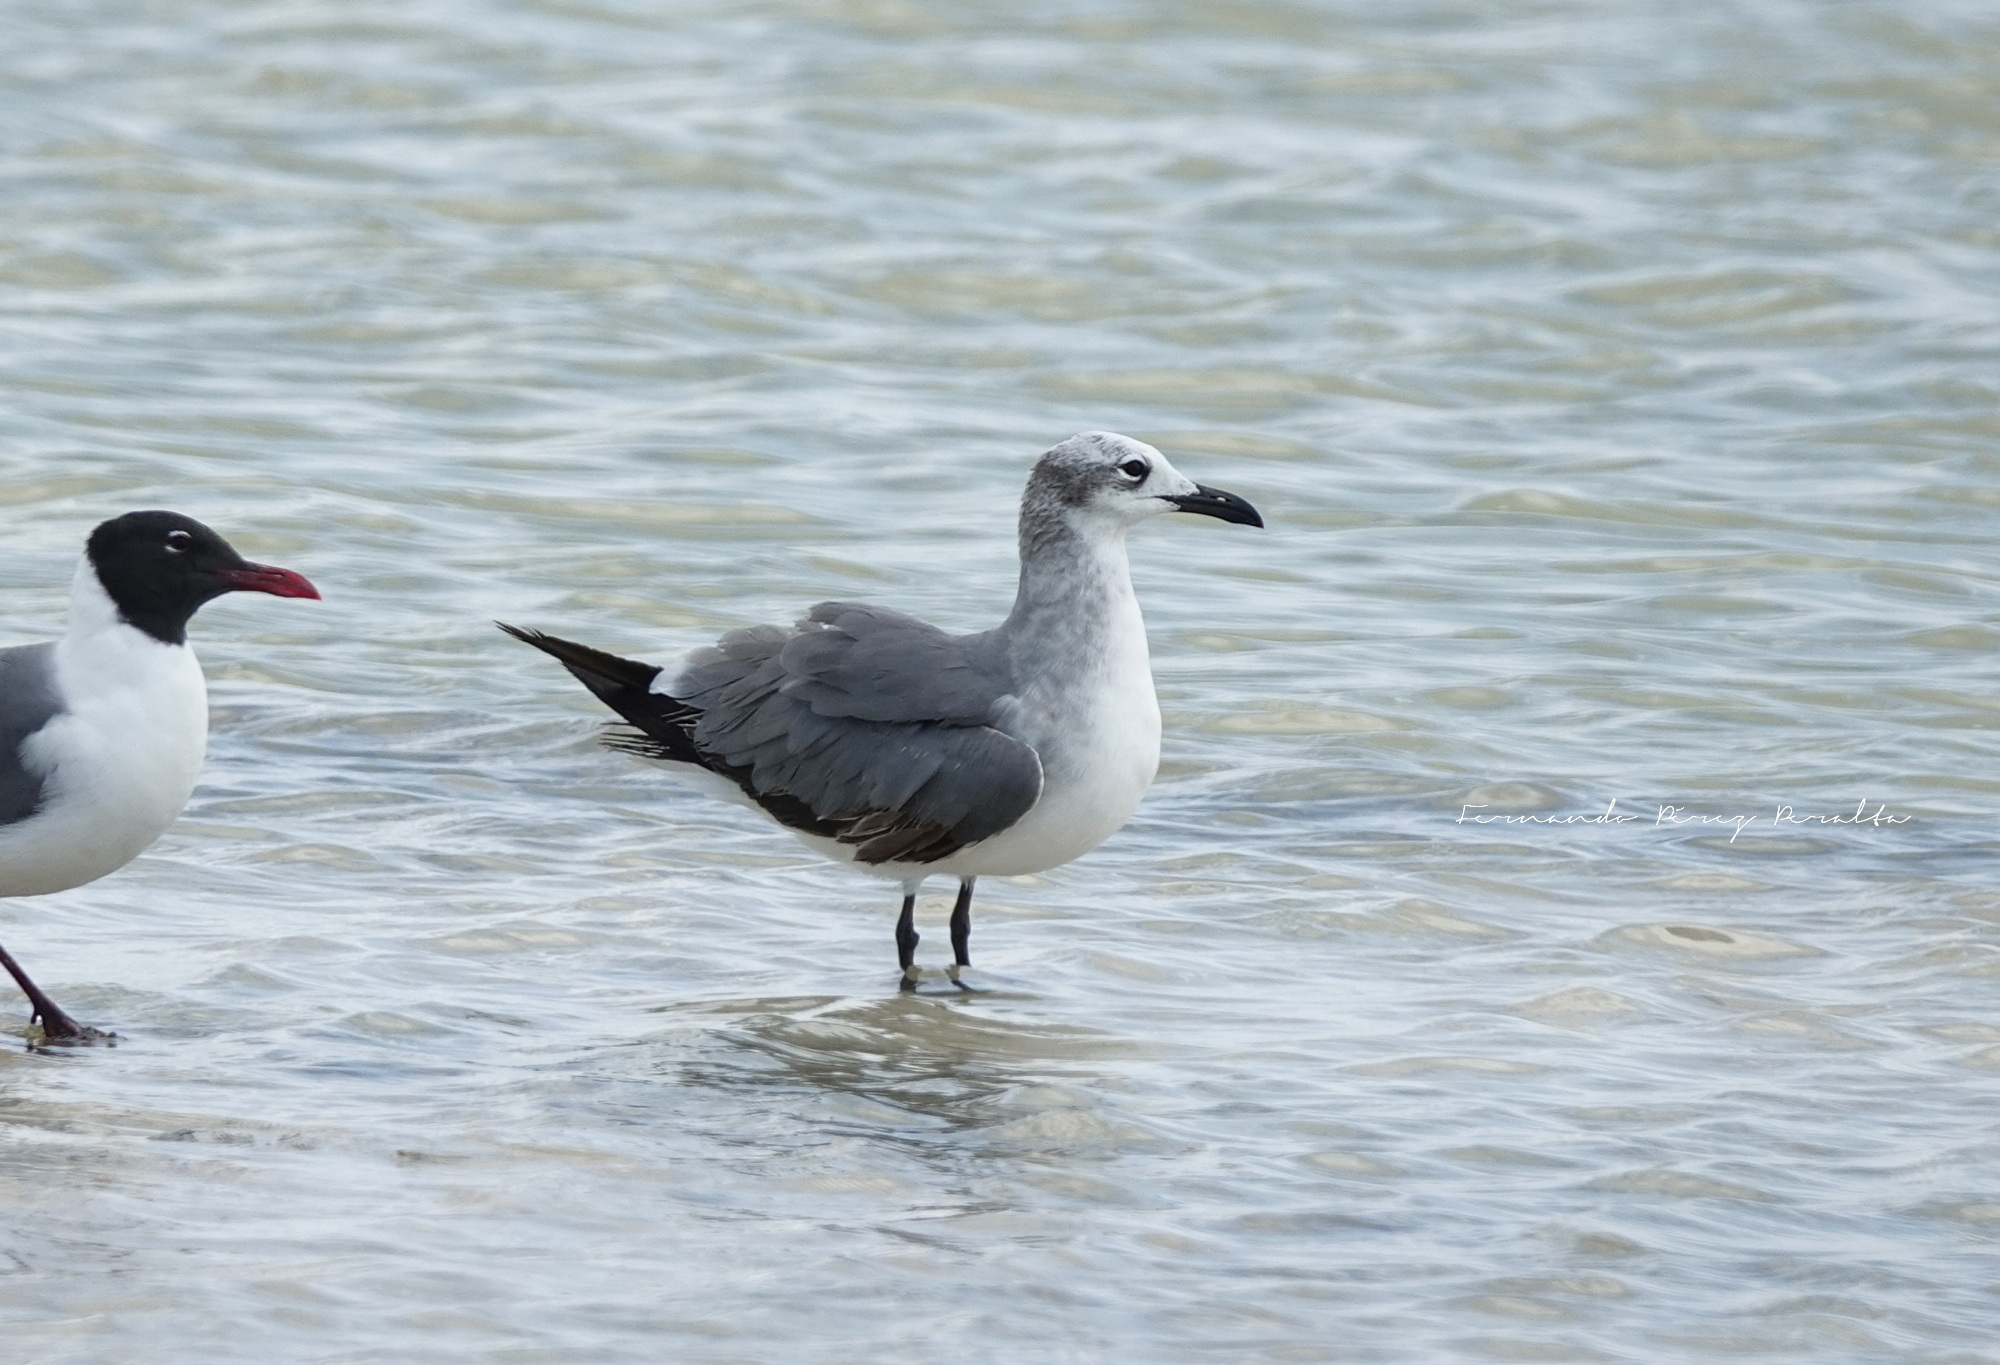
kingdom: Animalia
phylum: Chordata
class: Aves
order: Charadriiformes
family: Laridae
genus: Leucophaeus
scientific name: Leucophaeus atricilla
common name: Laughing gull
